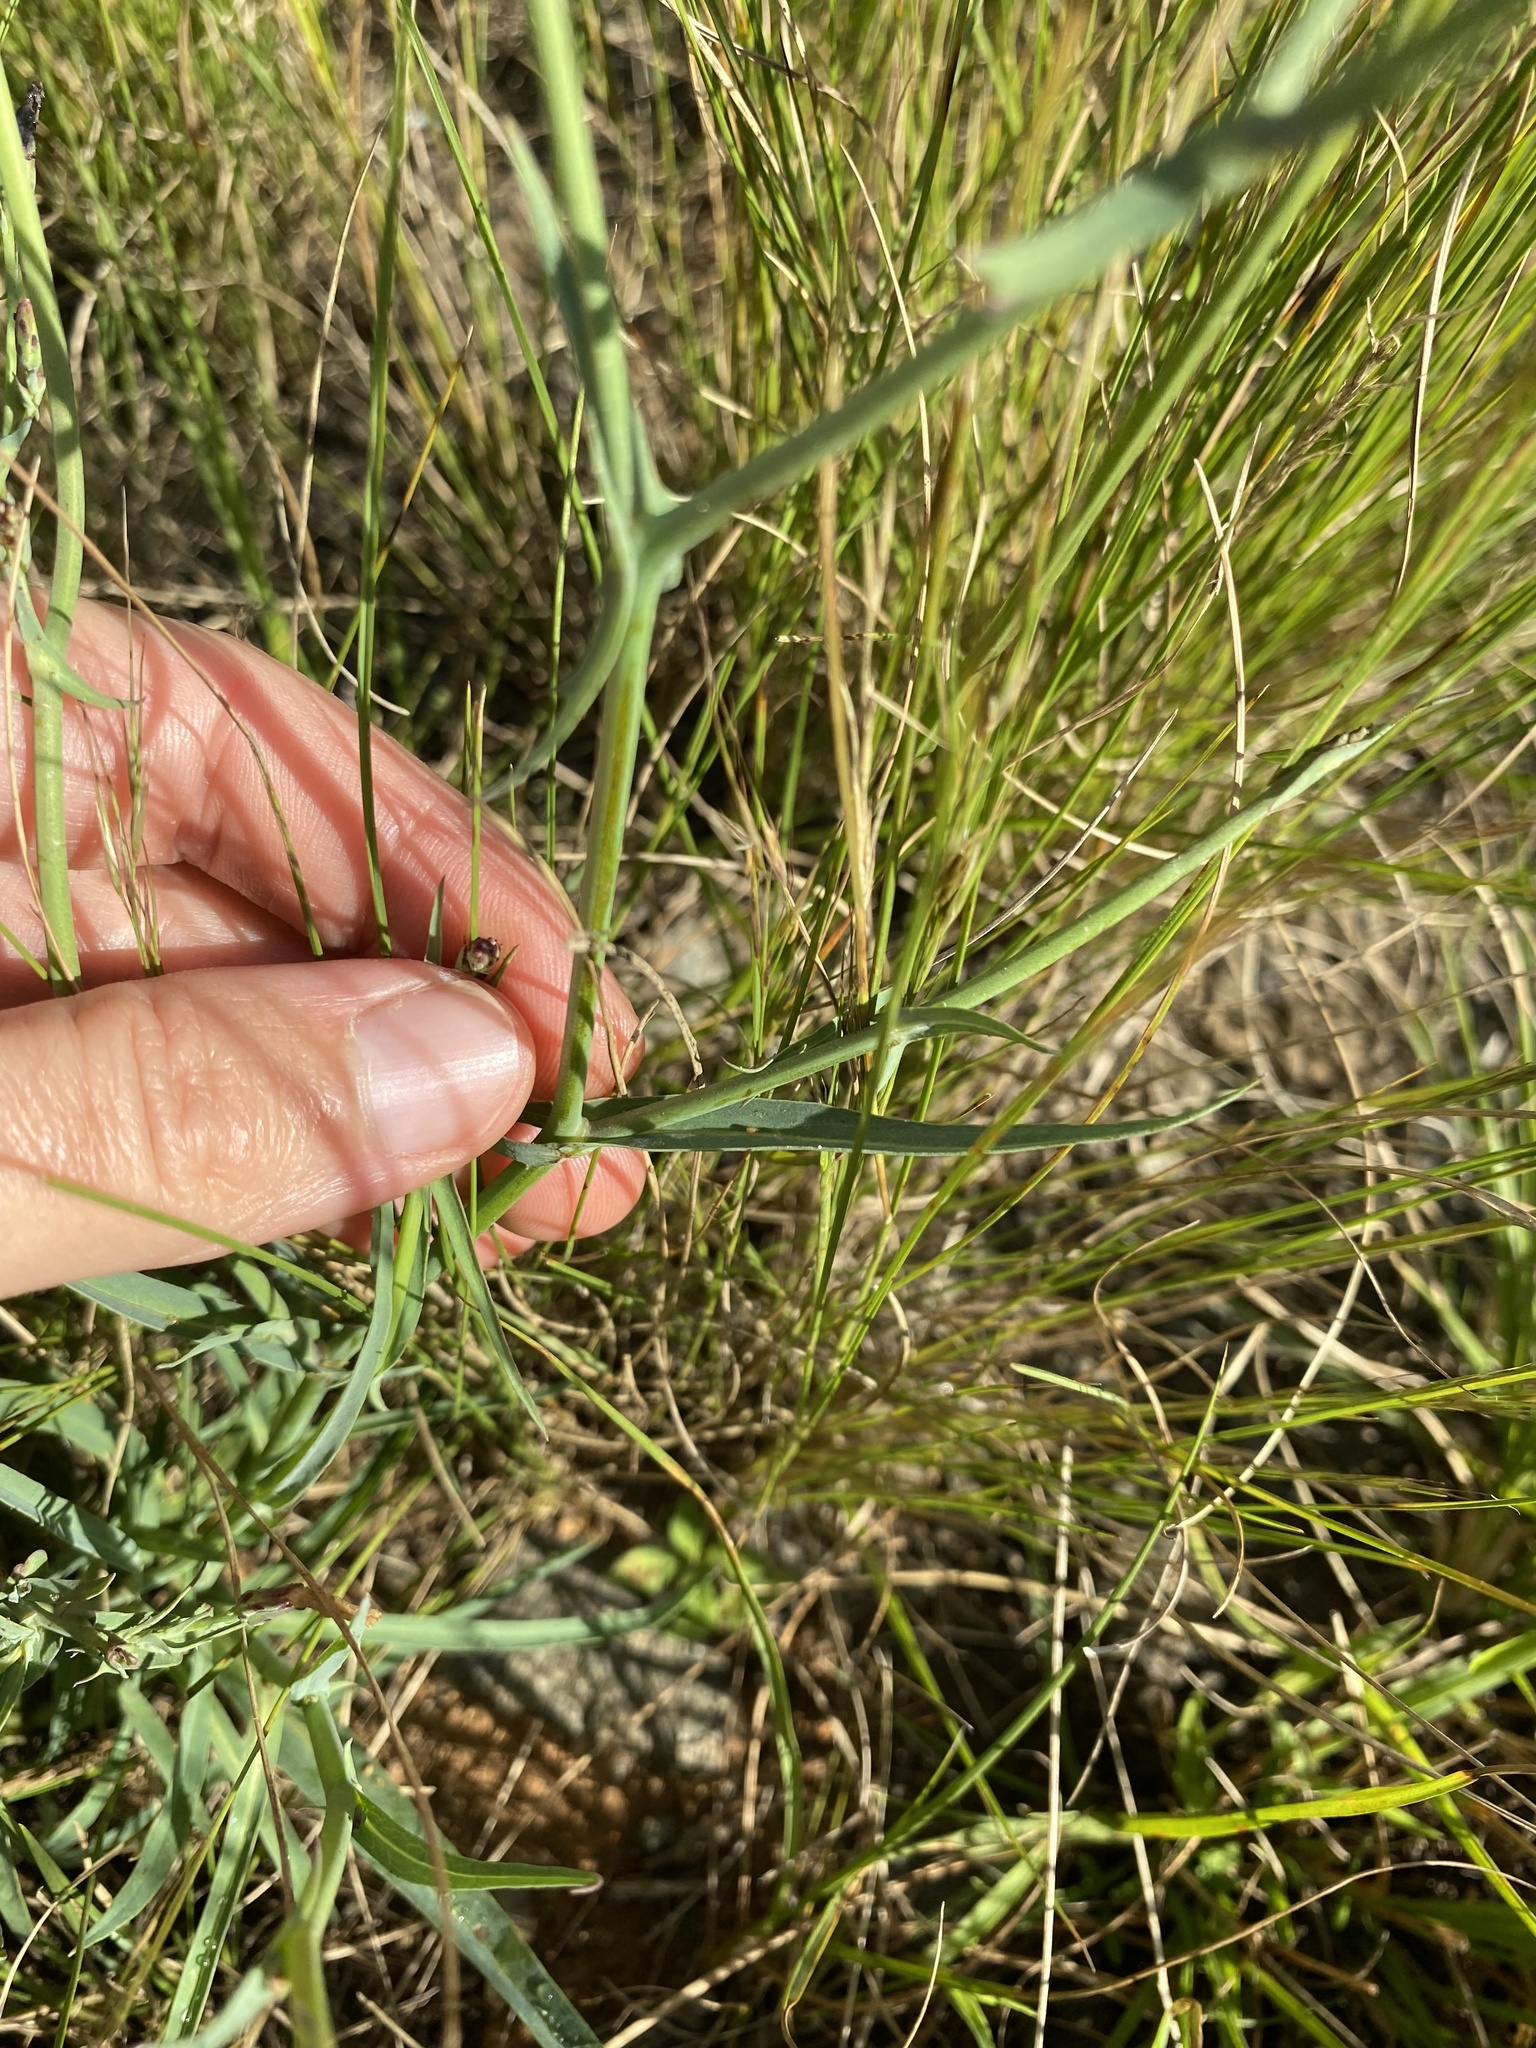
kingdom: Plantae
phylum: Tracheophyta
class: Magnoliopsida
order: Asterales
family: Asteraceae
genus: Lactuca
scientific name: Lactuca inermis
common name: Wild lettuce
